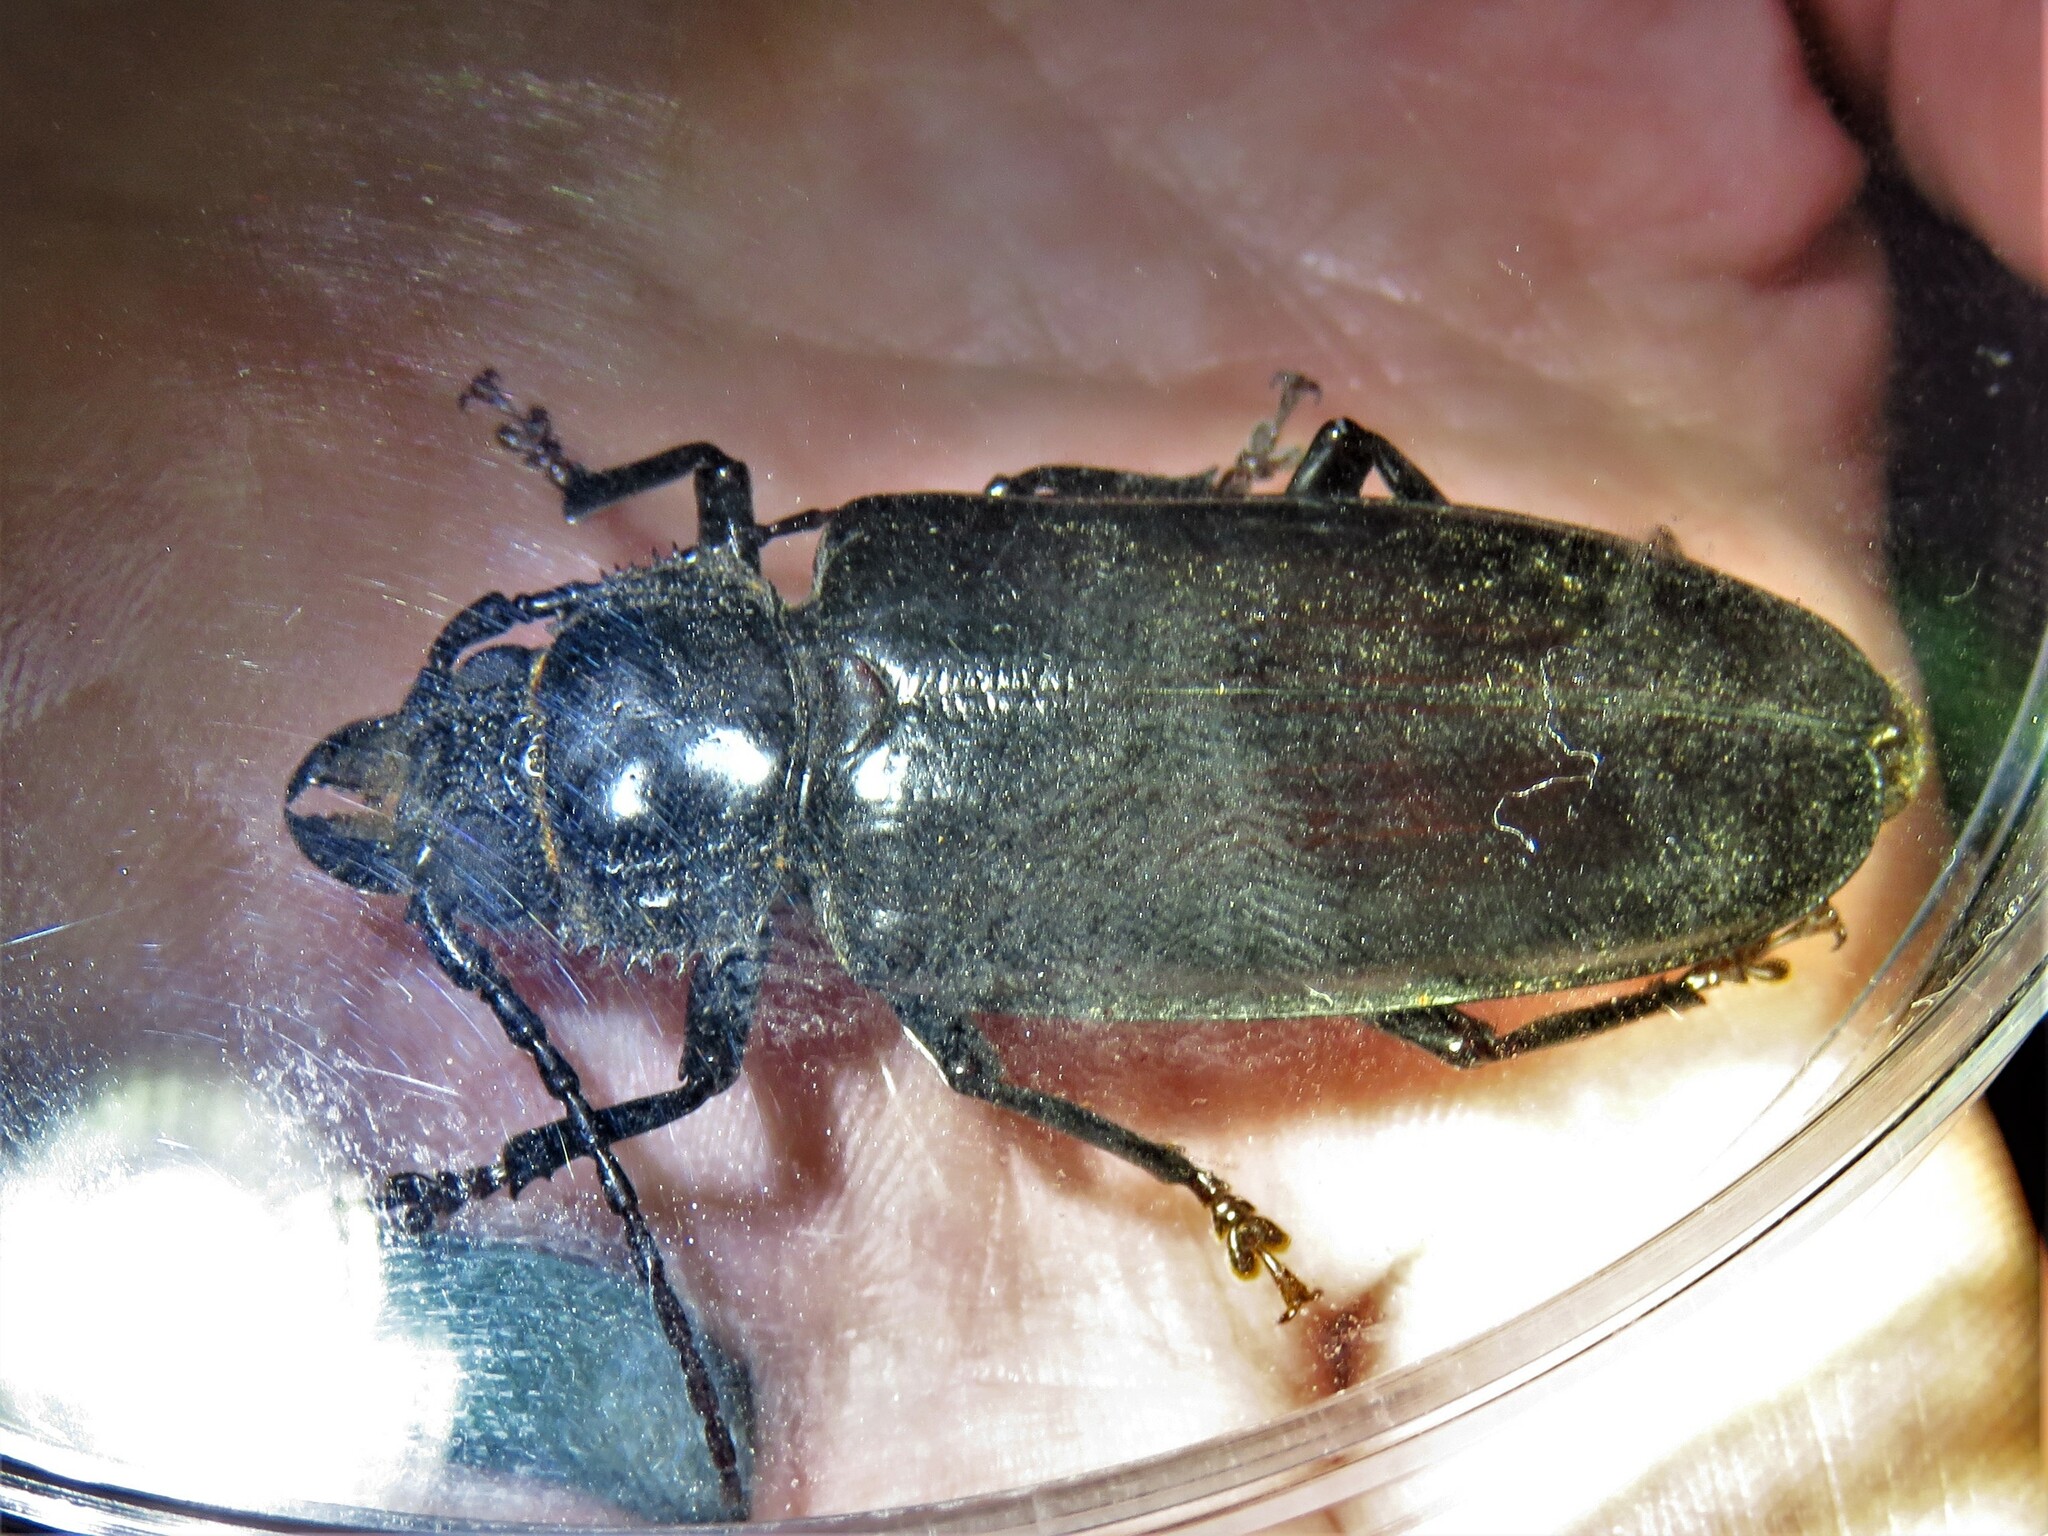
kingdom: Animalia
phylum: Arthropoda
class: Insecta
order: Coleoptera
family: Cerambycidae
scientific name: Cerambycidae
